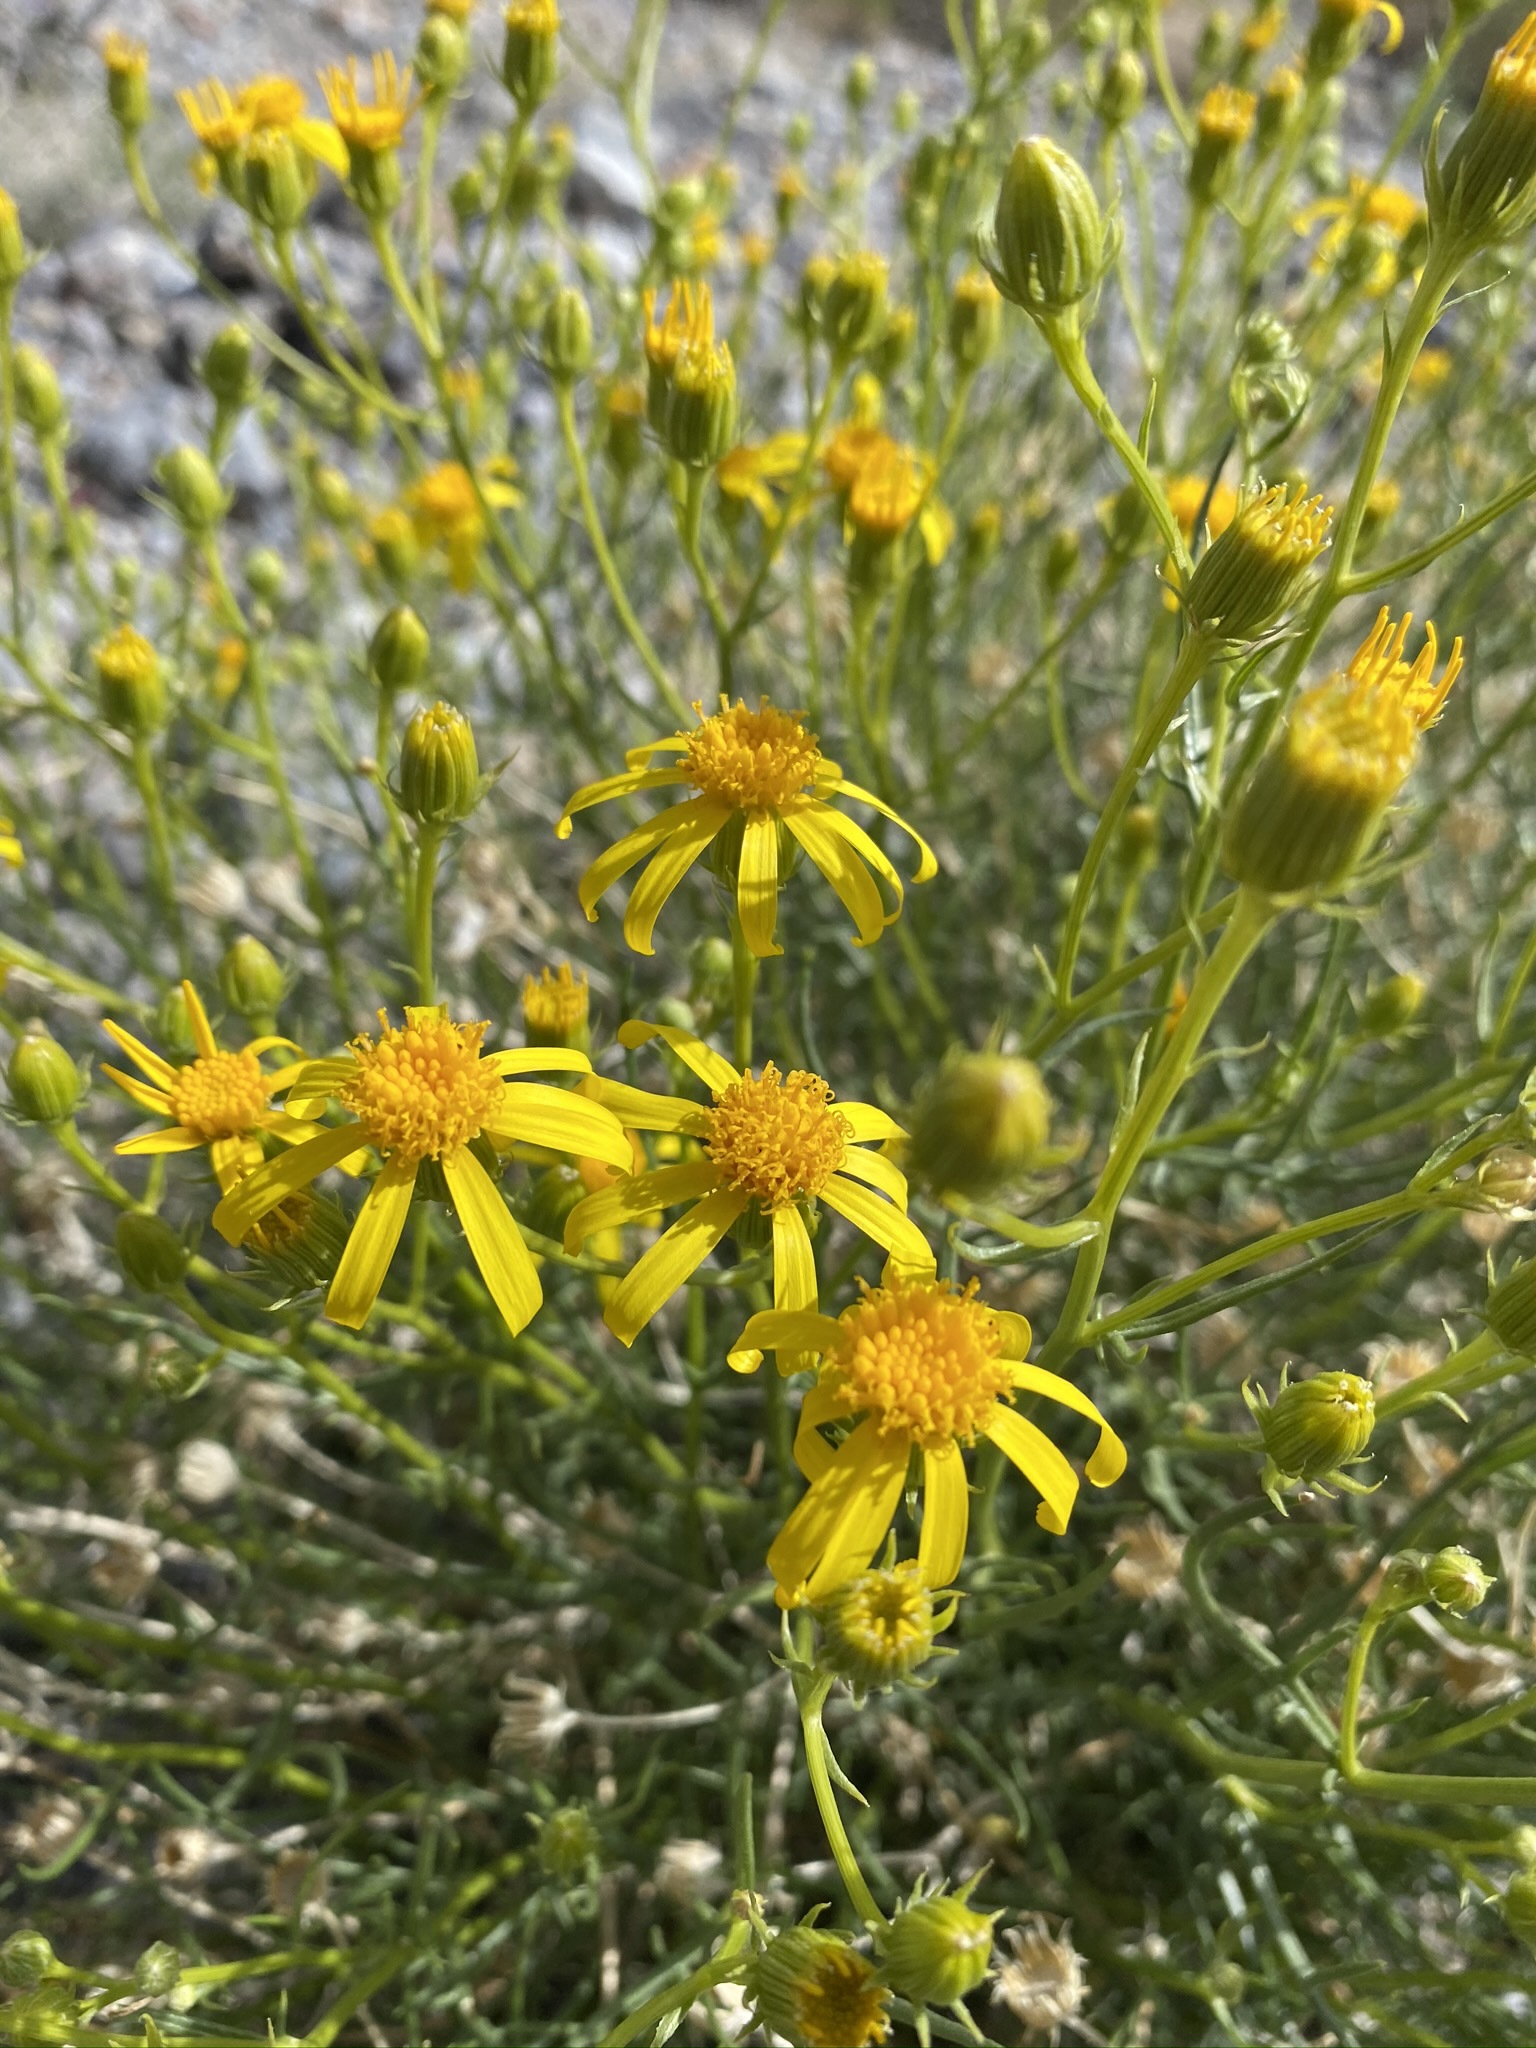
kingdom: Plantae
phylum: Tracheophyta
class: Magnoliopsida
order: Asterales
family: Asteraceae
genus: Senecio
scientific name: Senecio flaccidus
